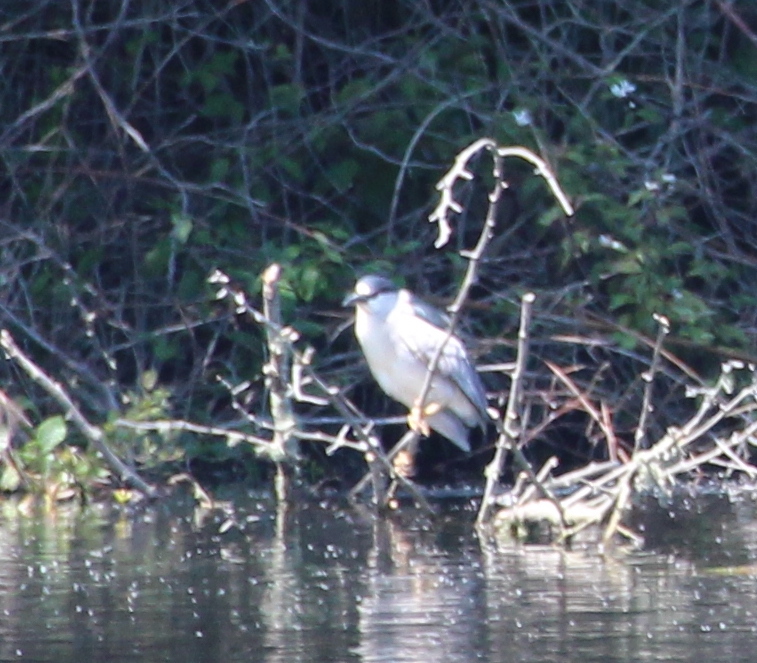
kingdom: Animalia
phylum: Chordata
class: Aves
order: Pelecaniformes
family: Ardeidae
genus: Nycticorax
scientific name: Nycticorax nycticorax
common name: Black-crowned night heron
